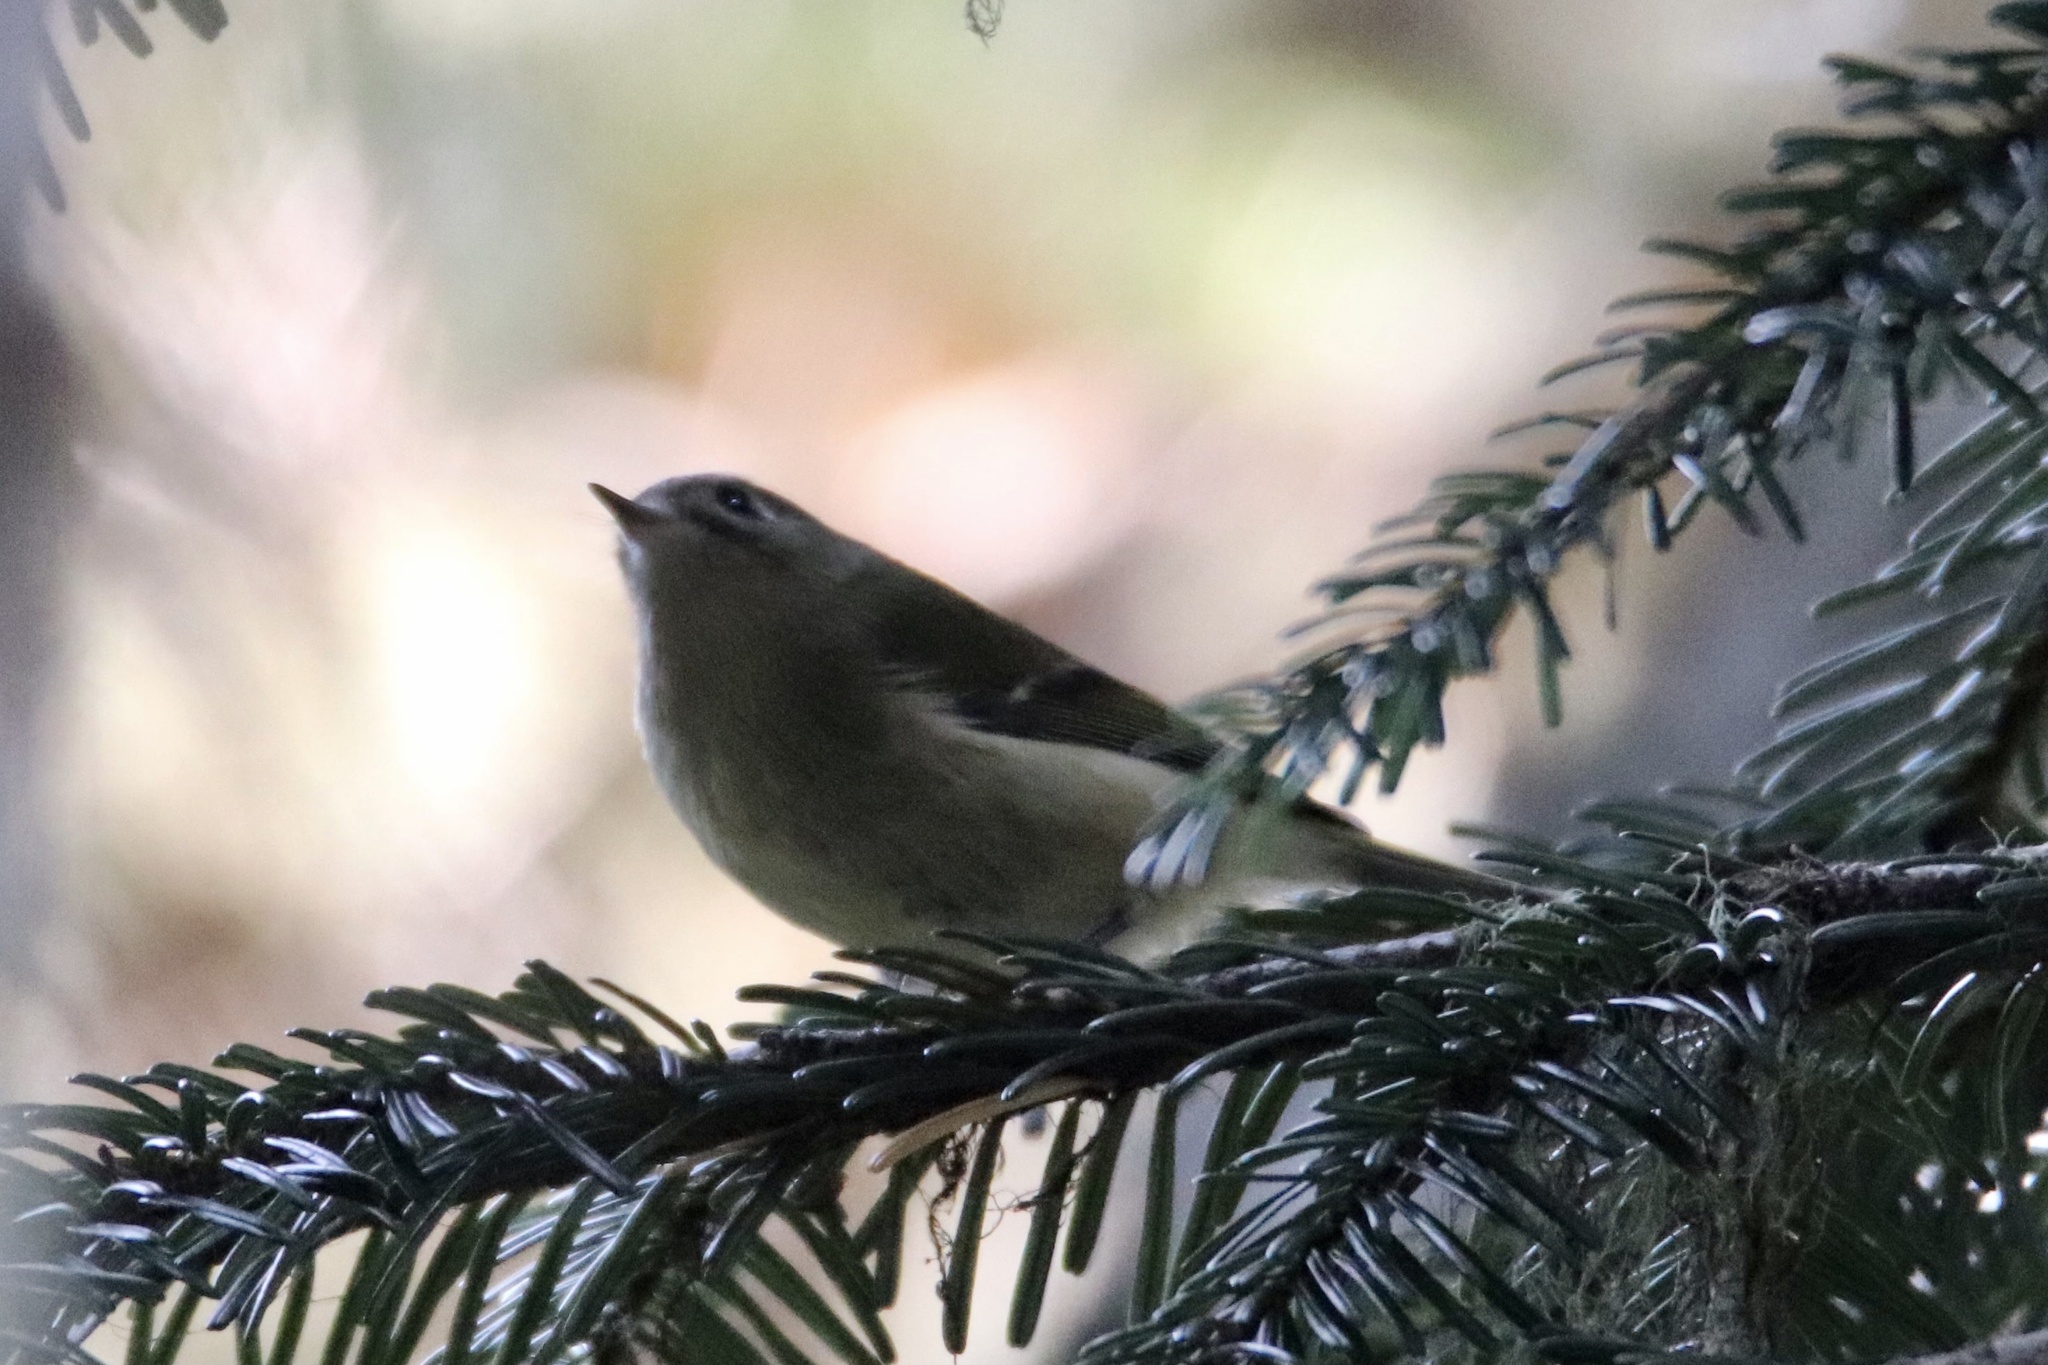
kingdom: Animalia
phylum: Chordata
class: Aves
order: Passeriformes
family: Regulidae
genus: Regulus
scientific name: Regulus calendula
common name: Ruby-crowned kinglet
